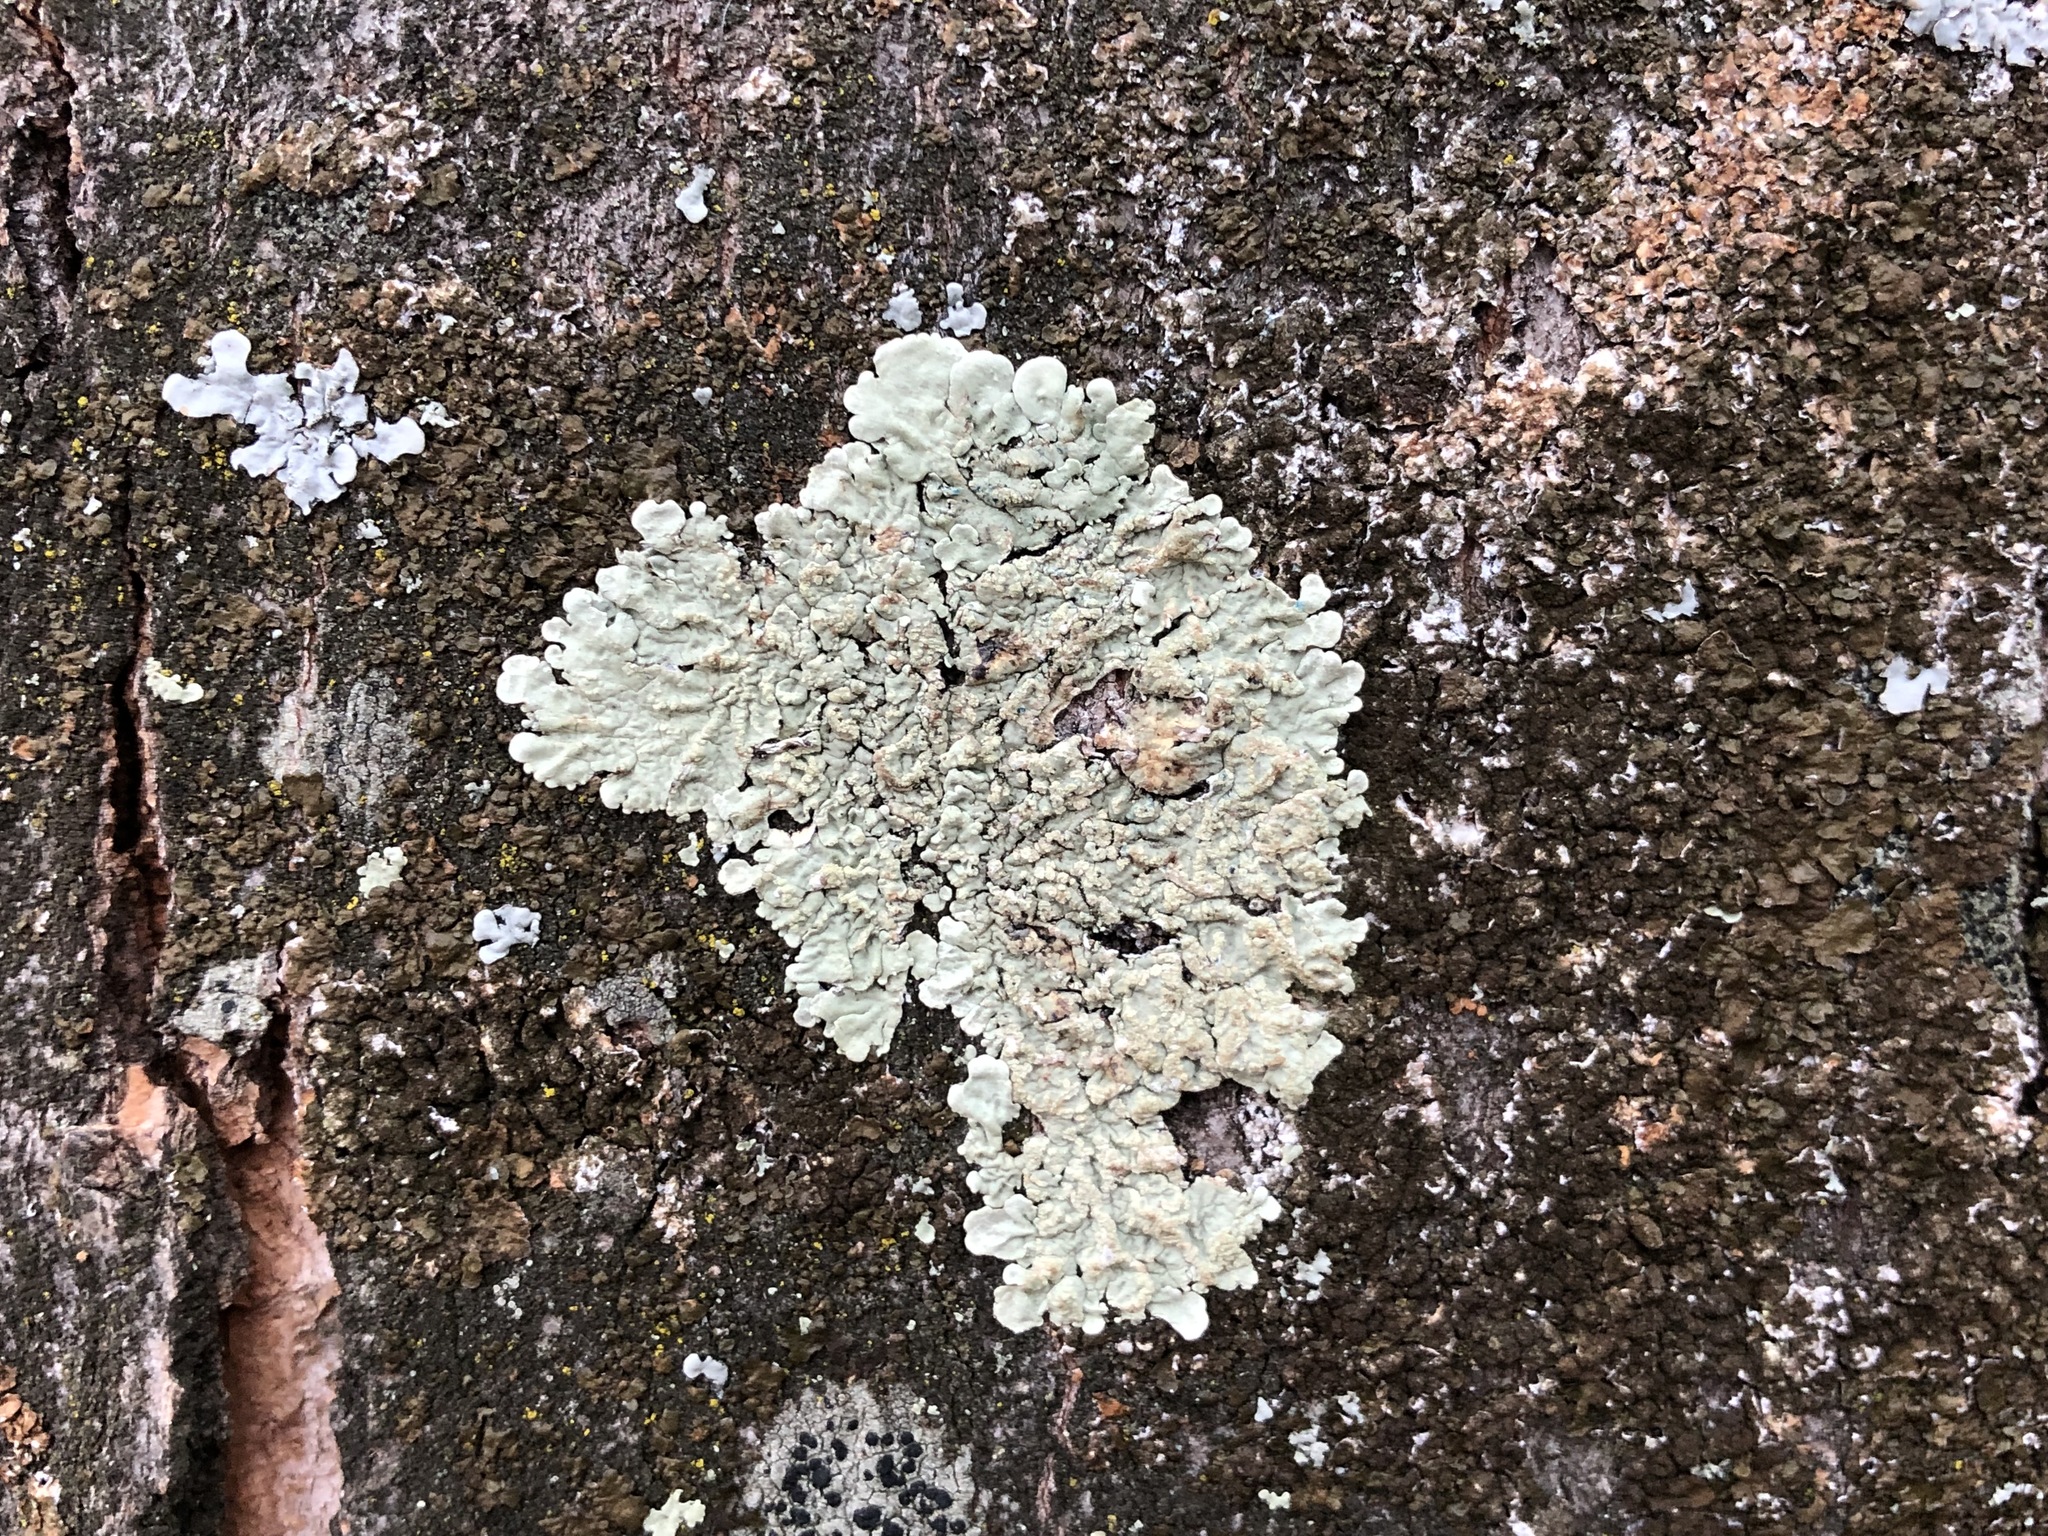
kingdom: Fungi
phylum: Ascomycota
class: Lecanoromycetes
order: Lecanorales
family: Parmeliaceae
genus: Flavoparmelia
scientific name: Flavoparmelia soredians
